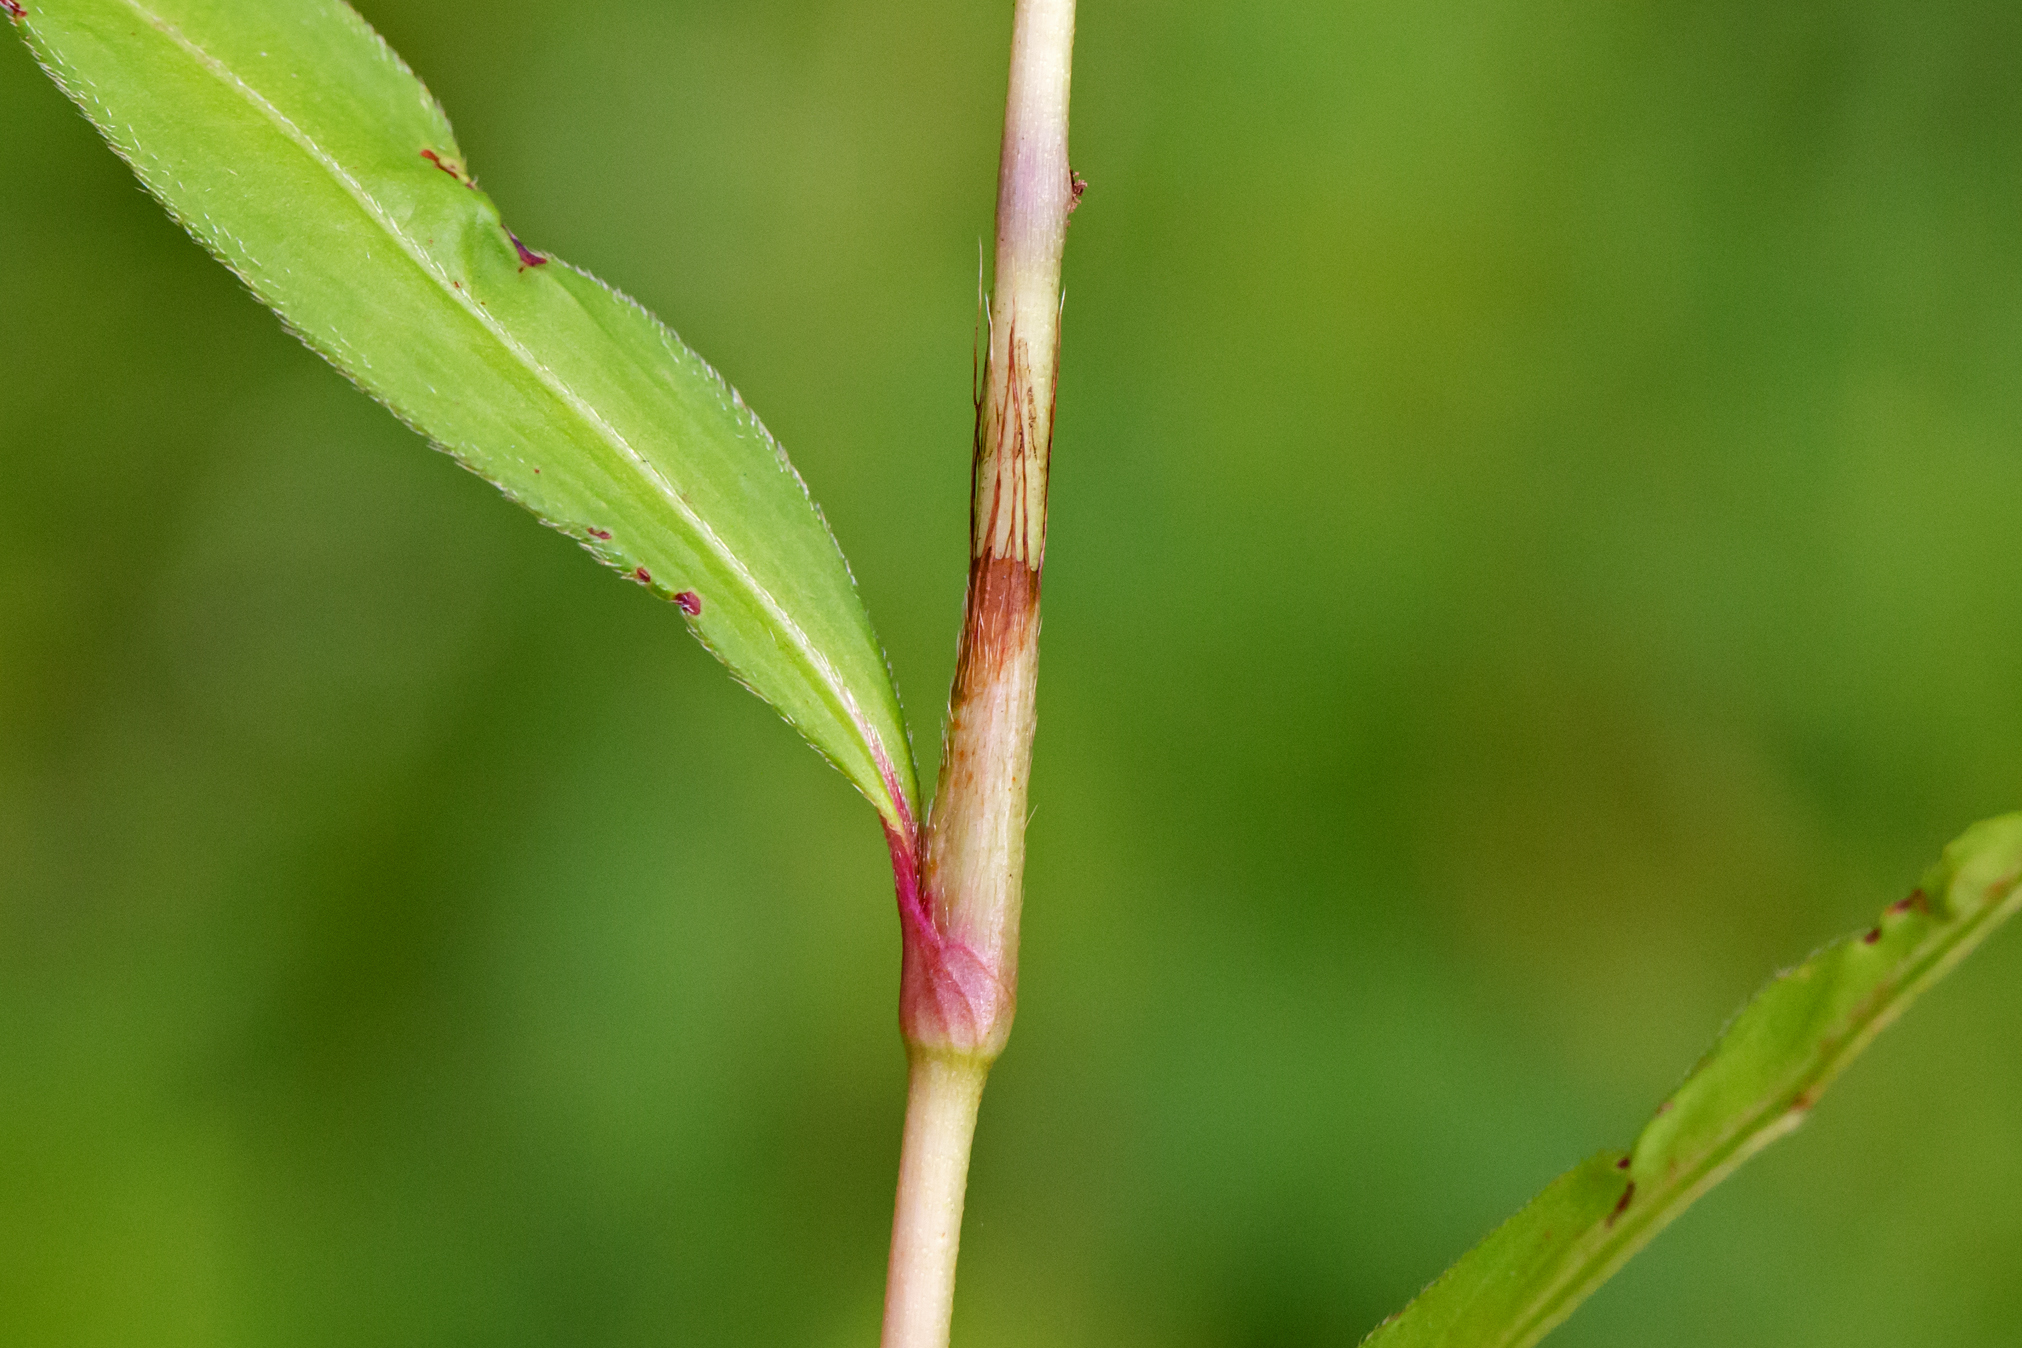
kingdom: Plantae
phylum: Tracheophyta
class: Magnoliopsida
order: Caryophyllales
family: Polygonaceae
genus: Persicaria
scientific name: Persicaria punctata
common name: Dotted smartweed
